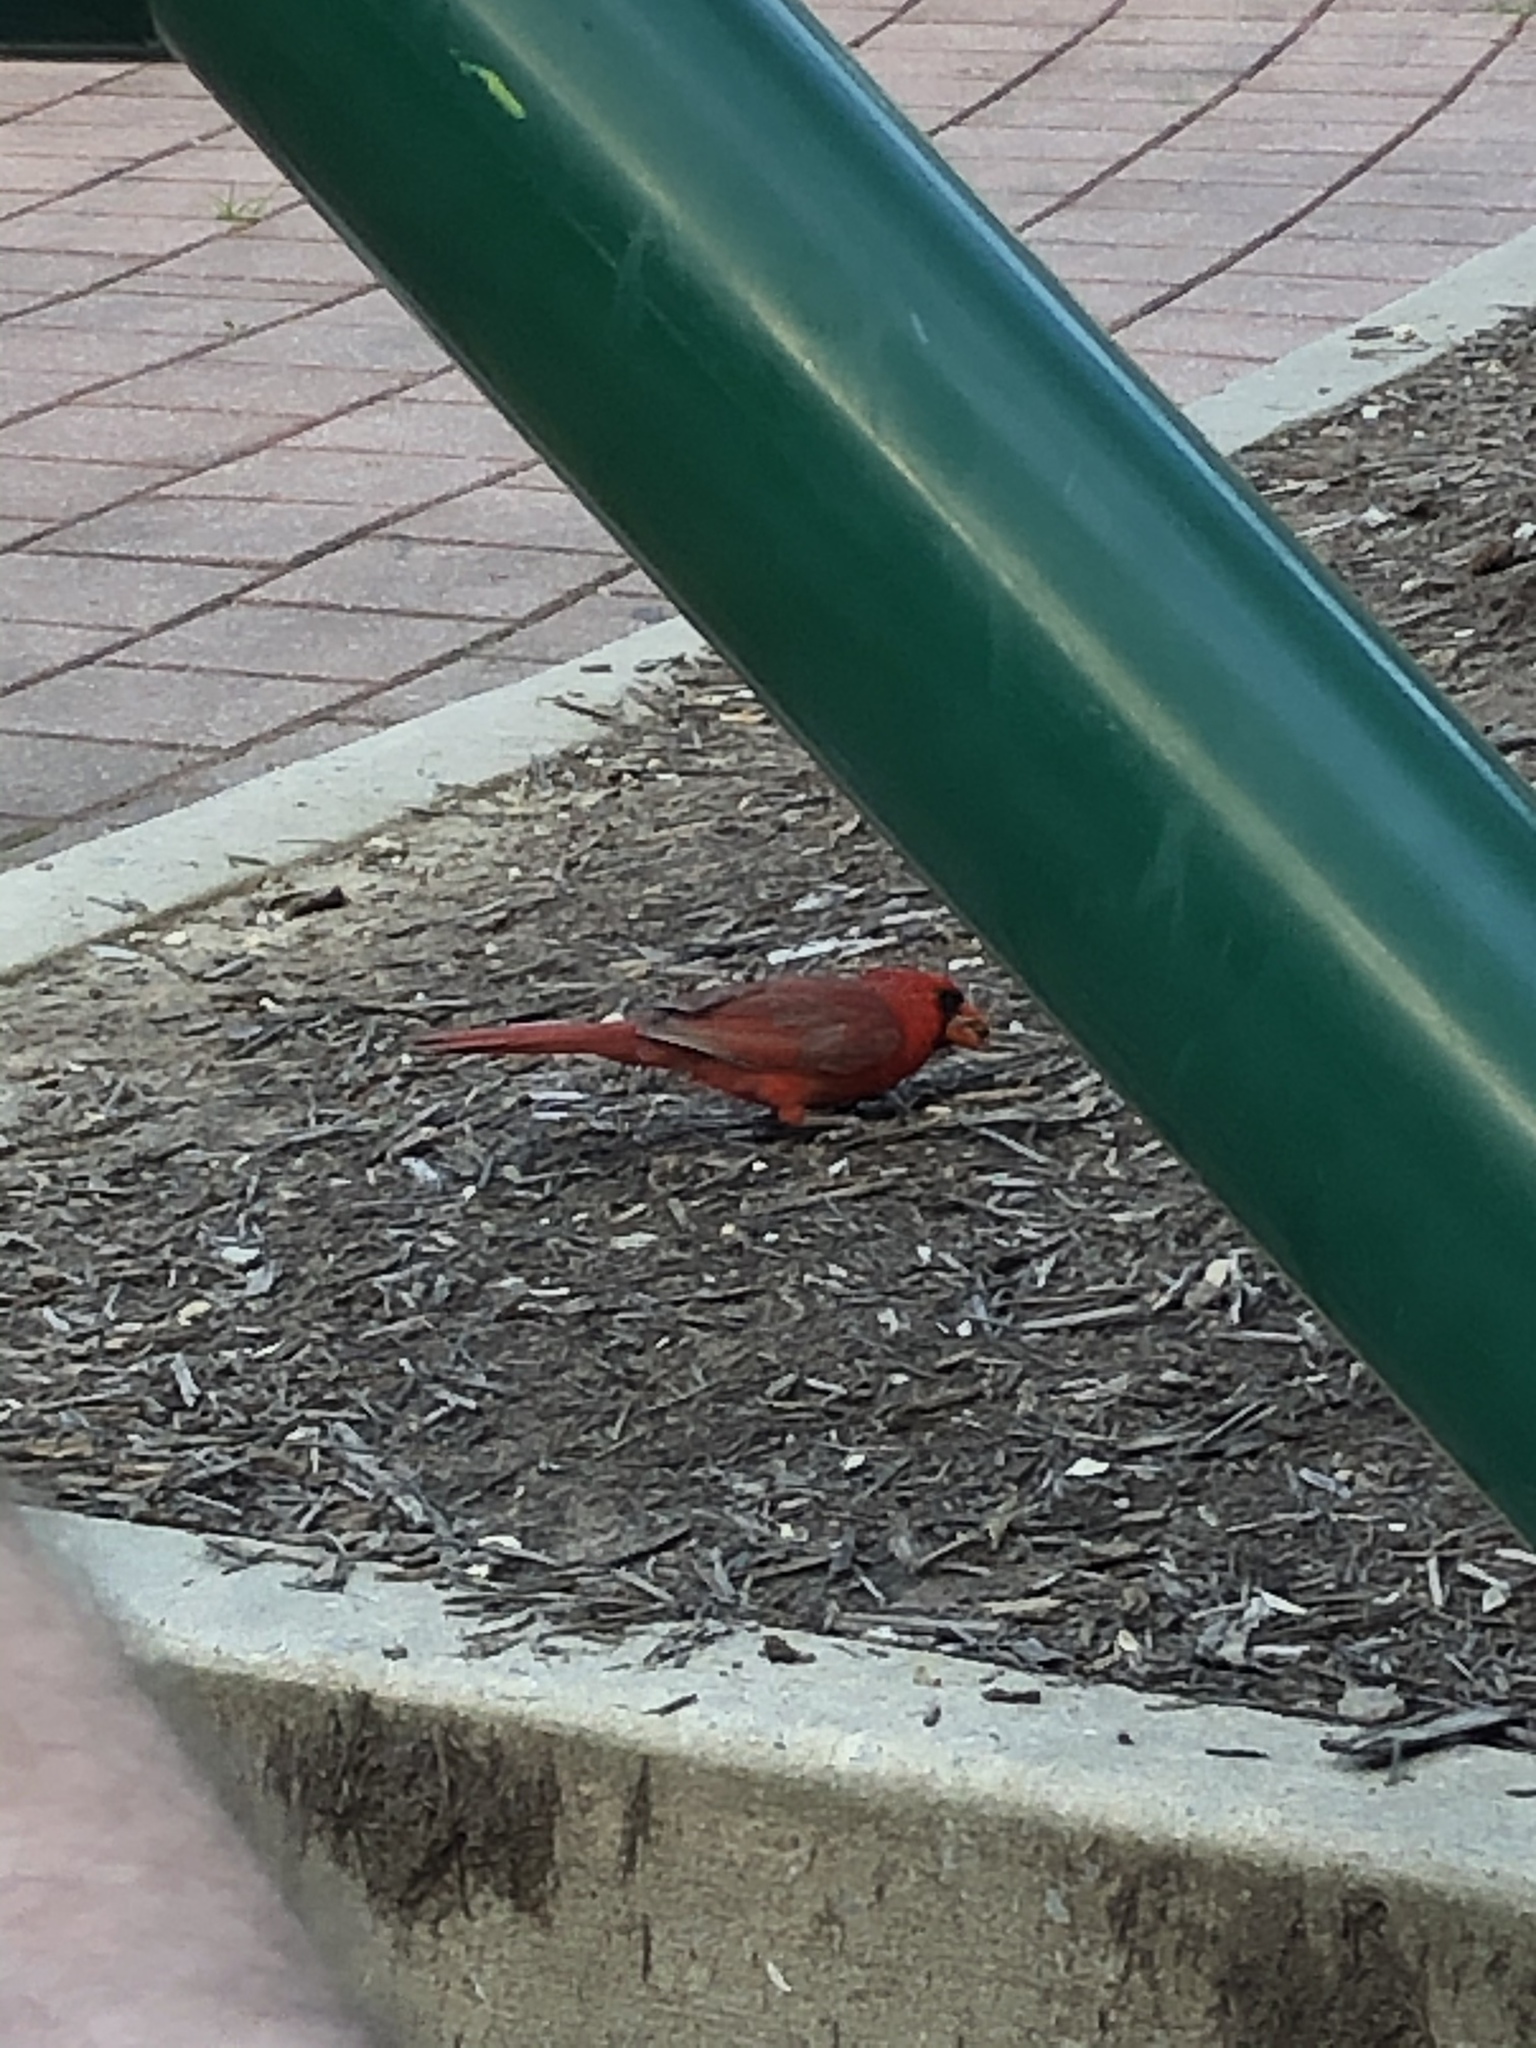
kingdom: Animalia
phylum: Chordata
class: Aves
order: Passeriformes
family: Cardinalidae
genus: Cardinalis
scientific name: Cardinalis cardinalis
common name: Northern cardinal
